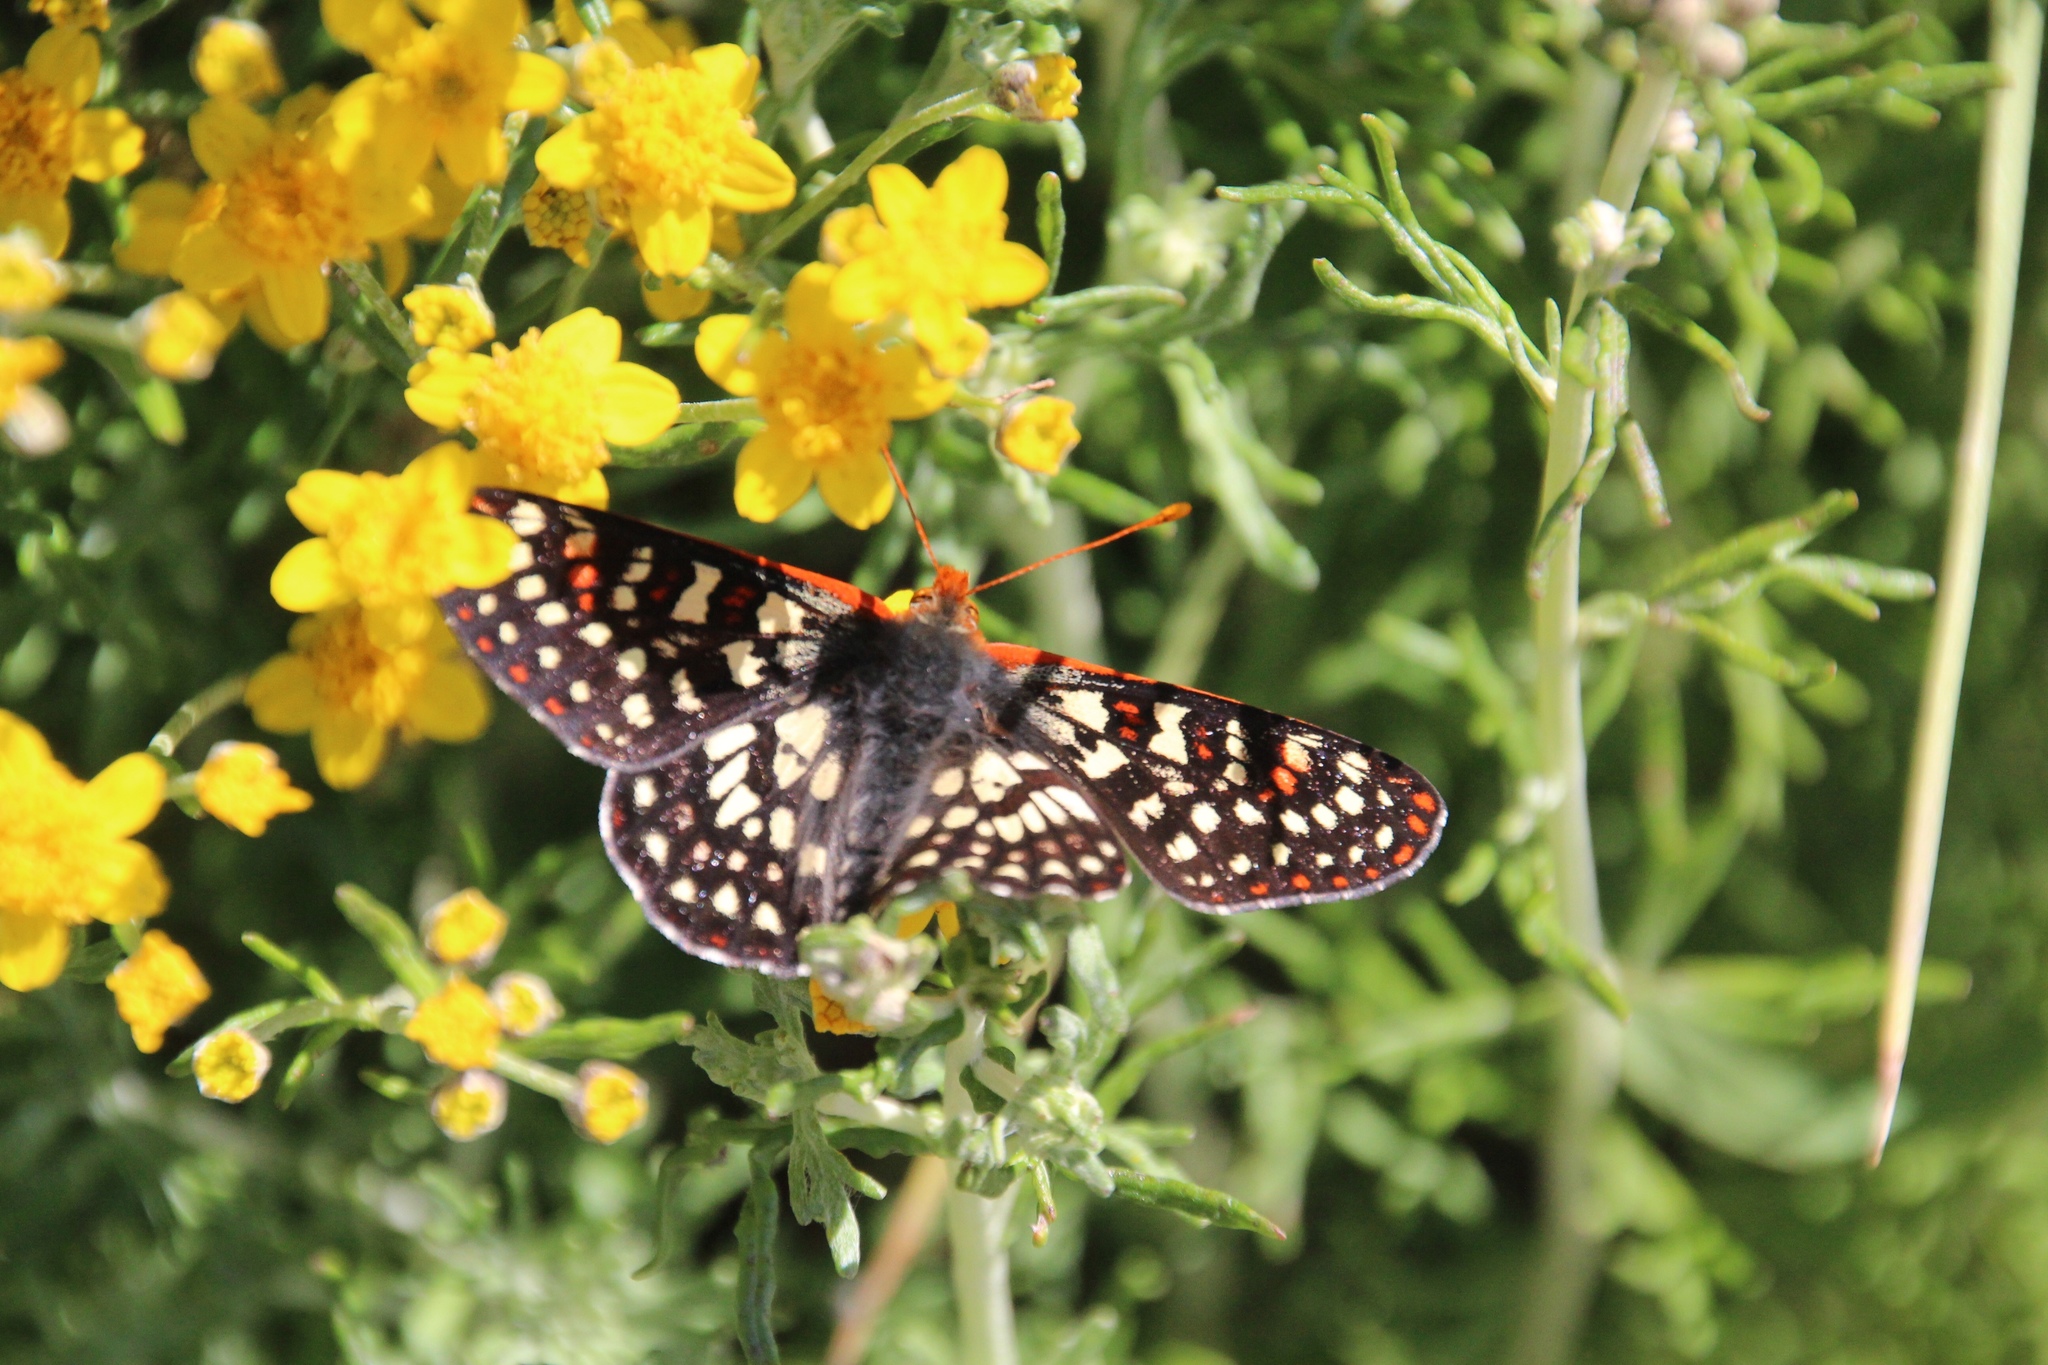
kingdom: Animalia
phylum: Arthropoda
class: Insecta
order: Lepidoptera
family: Nymphalidae
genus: Occidryas
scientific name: Occidryas chalcedona
